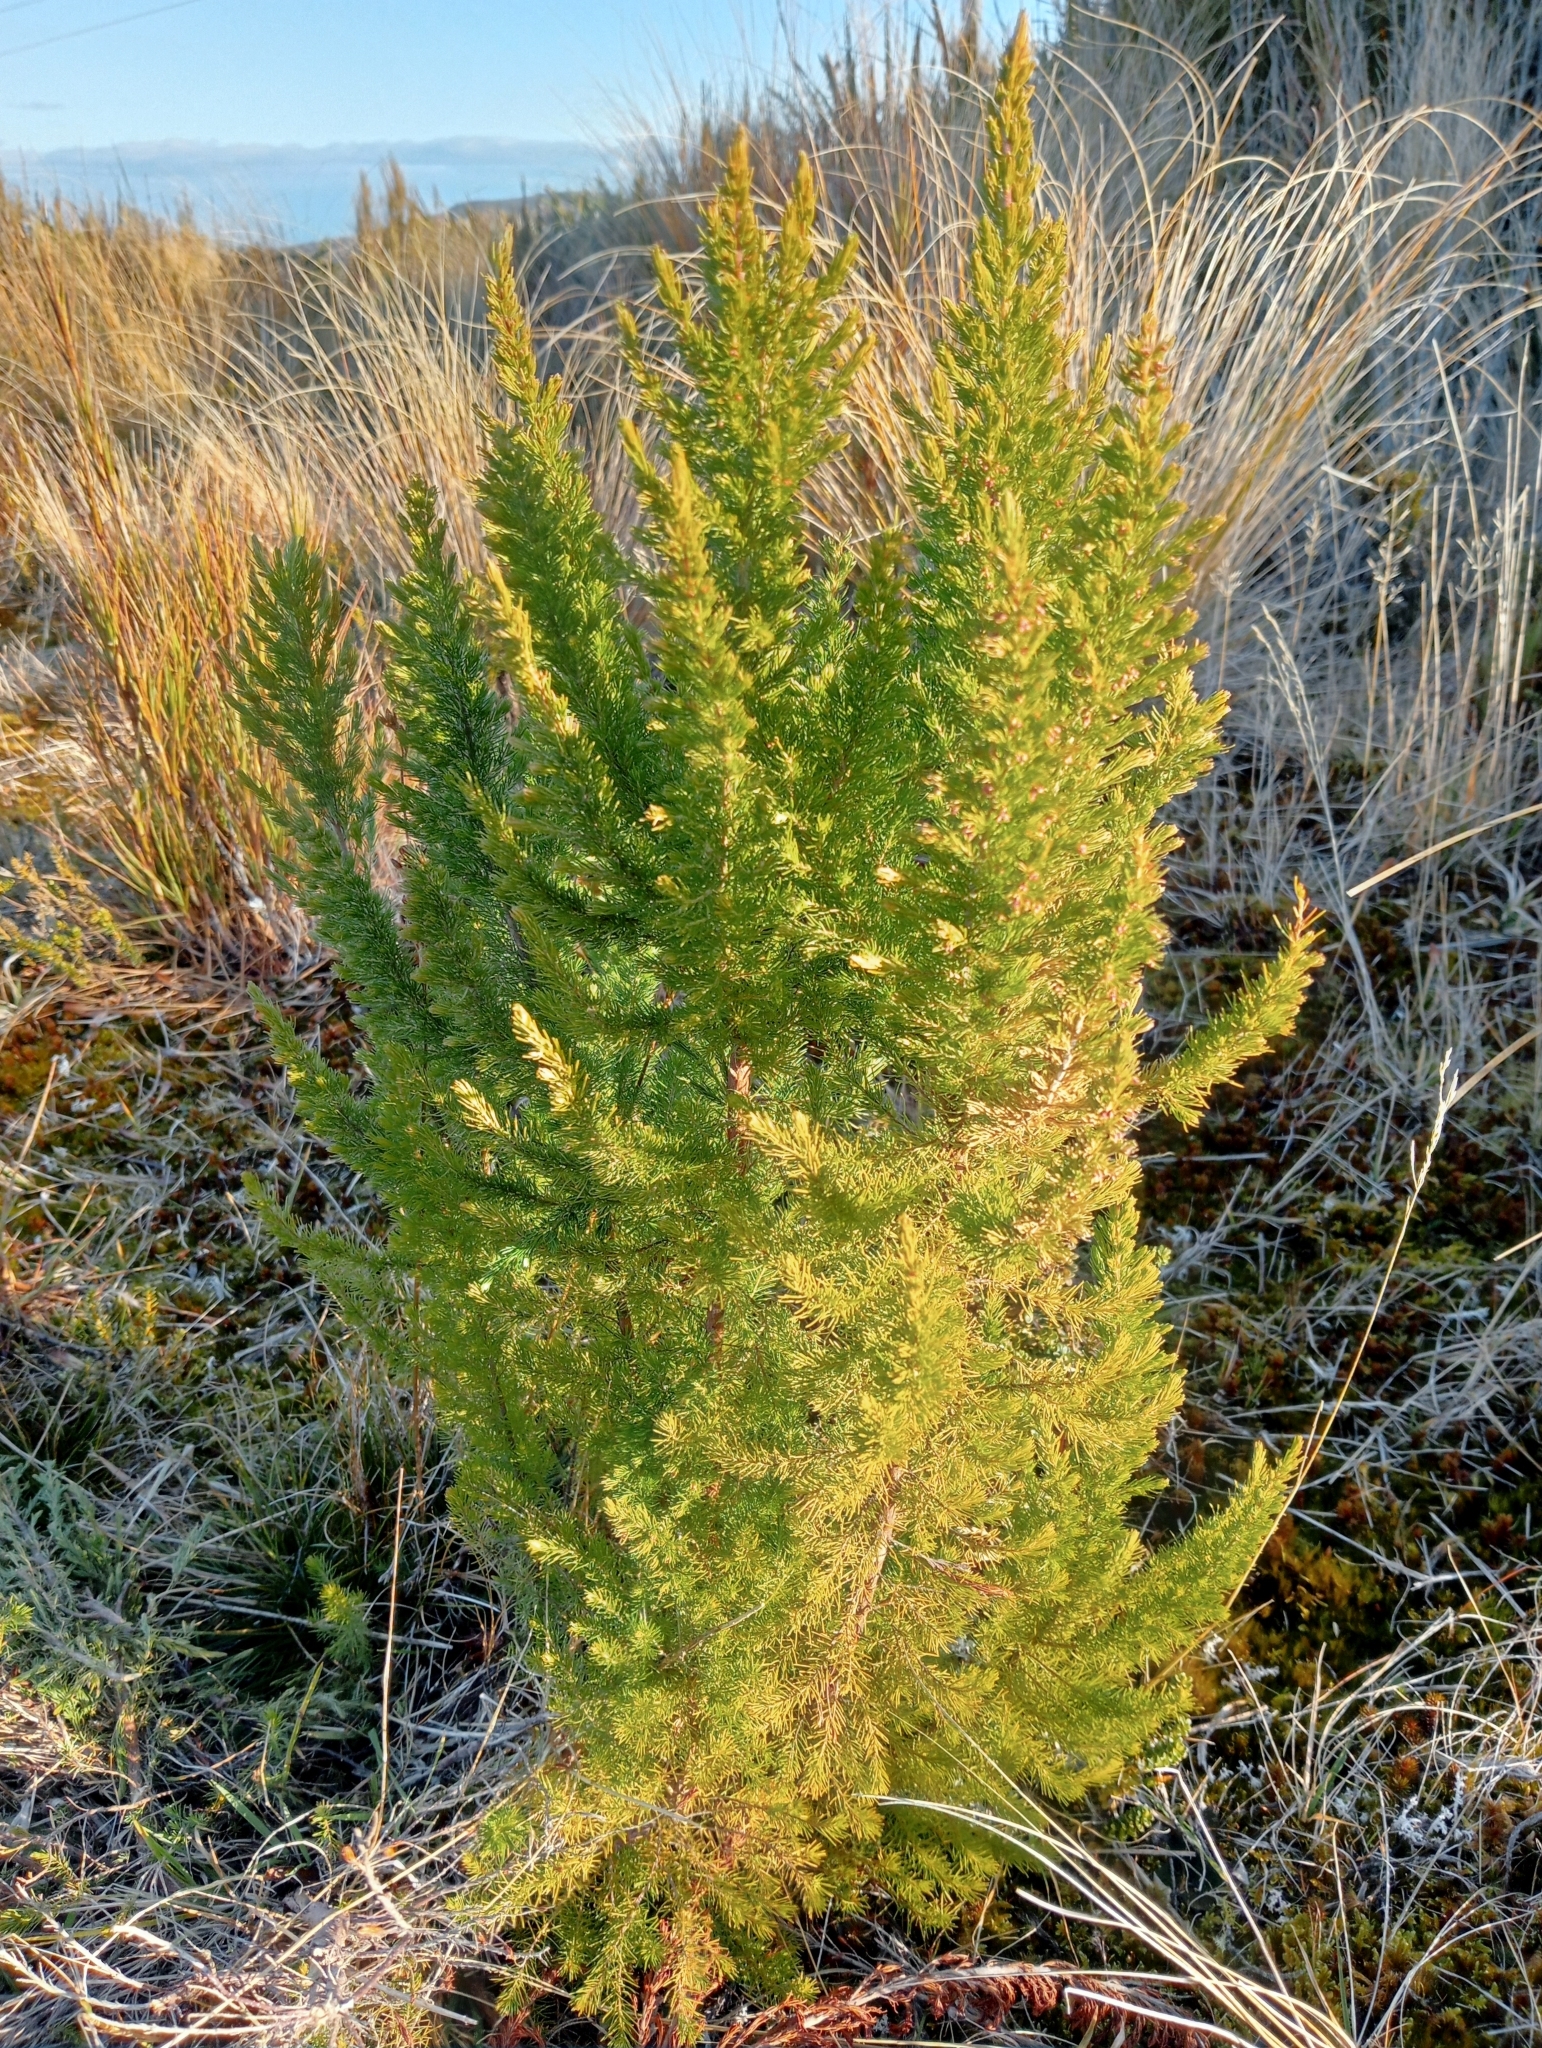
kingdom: Plantae
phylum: Tracheophyta
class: Magnoliopsida
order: Ericales
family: Ericaceae
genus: Erica
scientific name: Erica lusitanica
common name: Spanish heath
